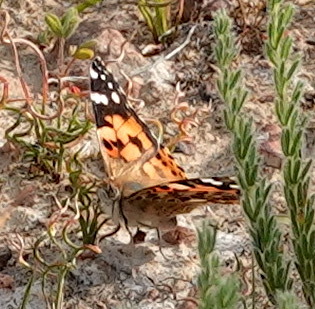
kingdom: Animalia
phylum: Arthropoda
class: Insecta
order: Lepidoptera
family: Nymphalidae
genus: Vanessa
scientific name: Vanessa cardui
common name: Painted lady
